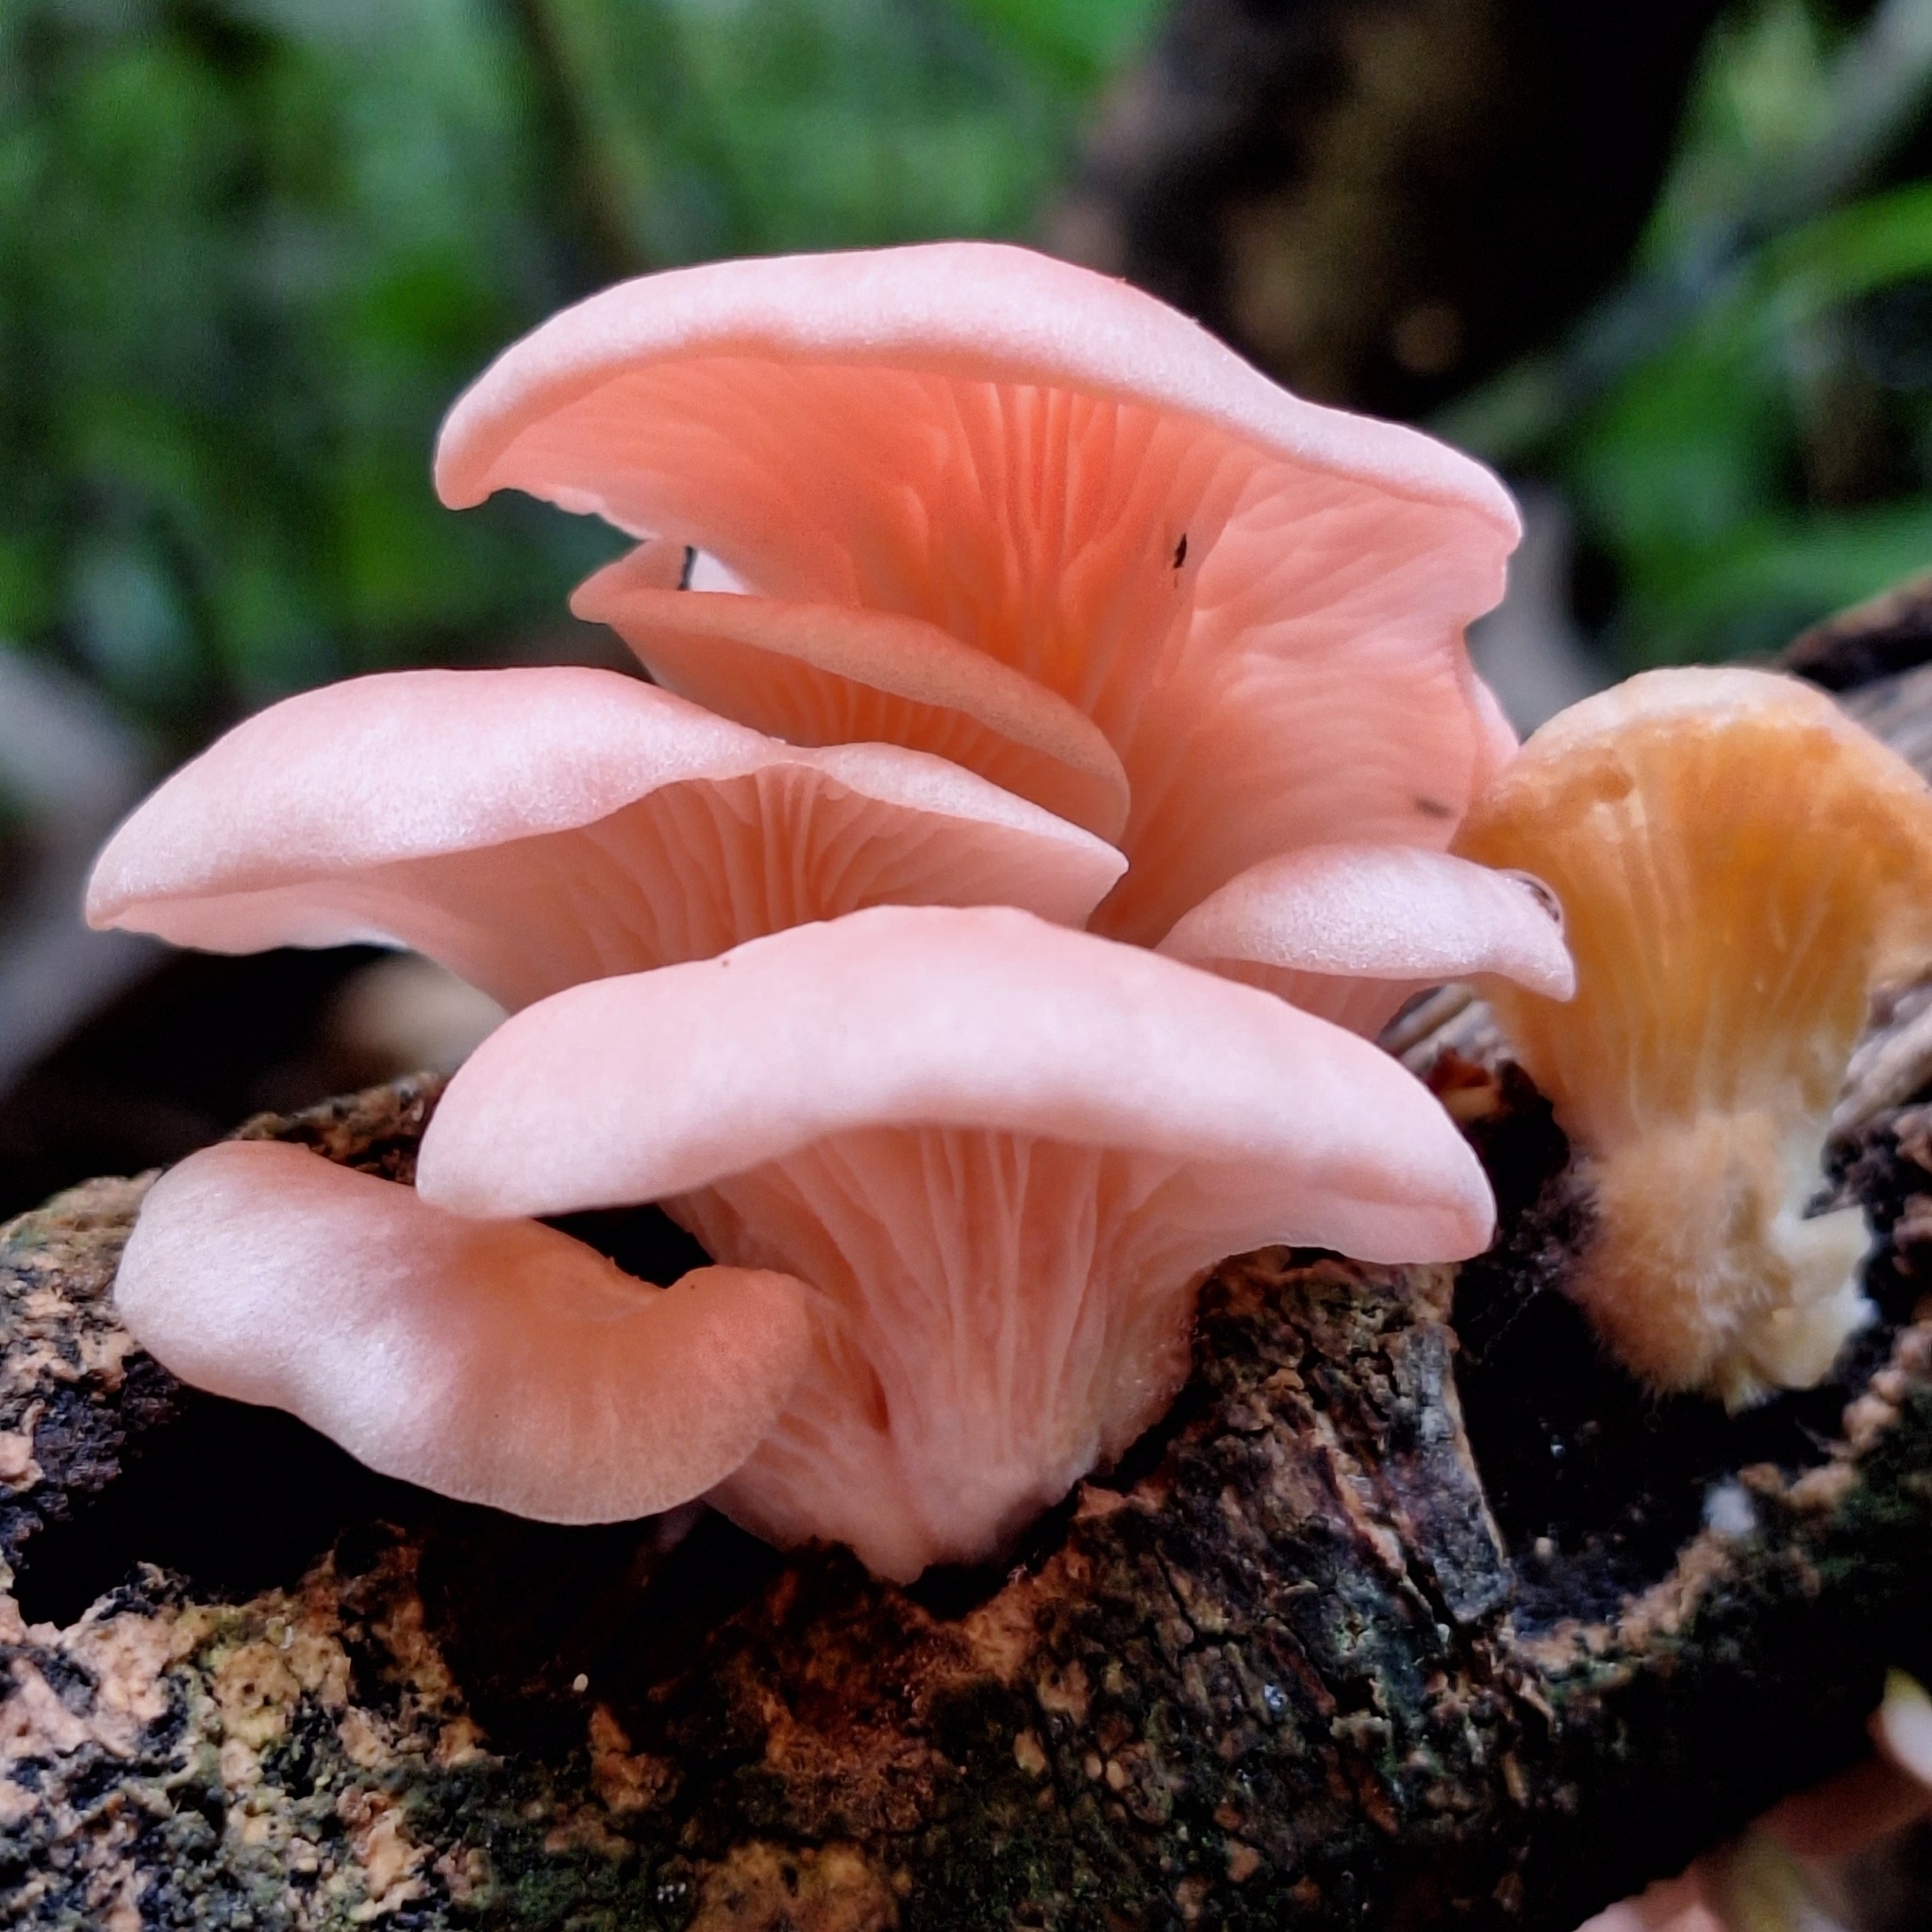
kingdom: Fungi
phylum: Basidiomycota
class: Agaricomycetes
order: Agaricales
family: Pleurotaceae
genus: Pleurotus
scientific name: Pleurotus djamor
